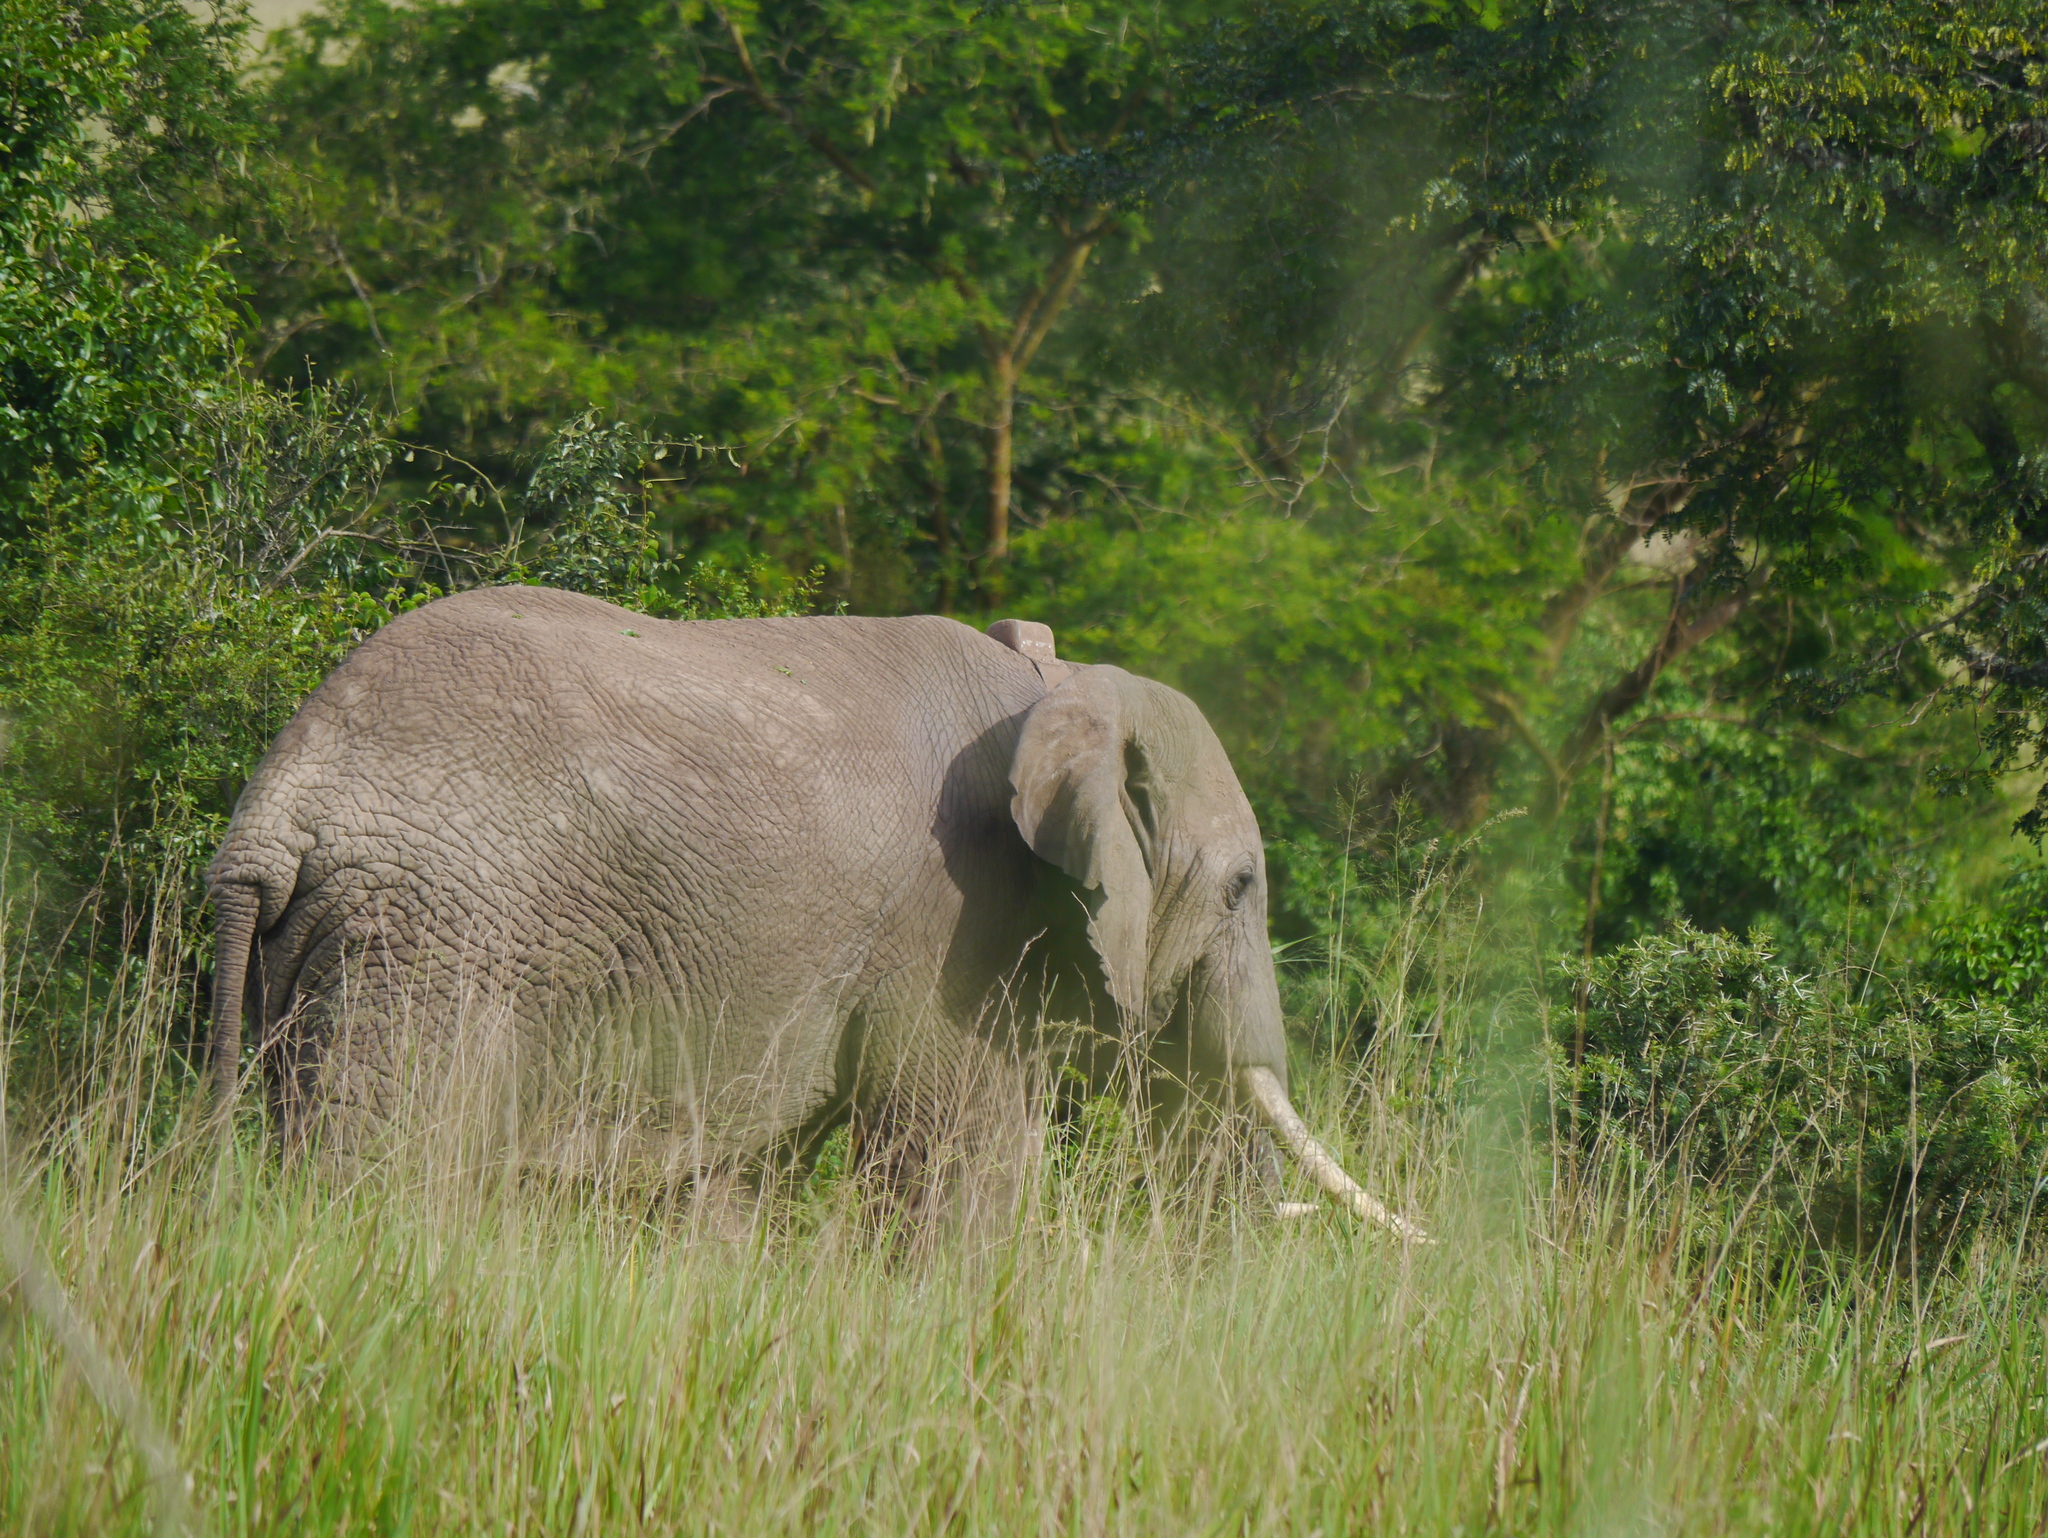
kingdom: Animalia
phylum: Chordata
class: Mammalia
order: Proboscidea
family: Elephantidae
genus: Loxodonta
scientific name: Loxodonta africana
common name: African elephant
